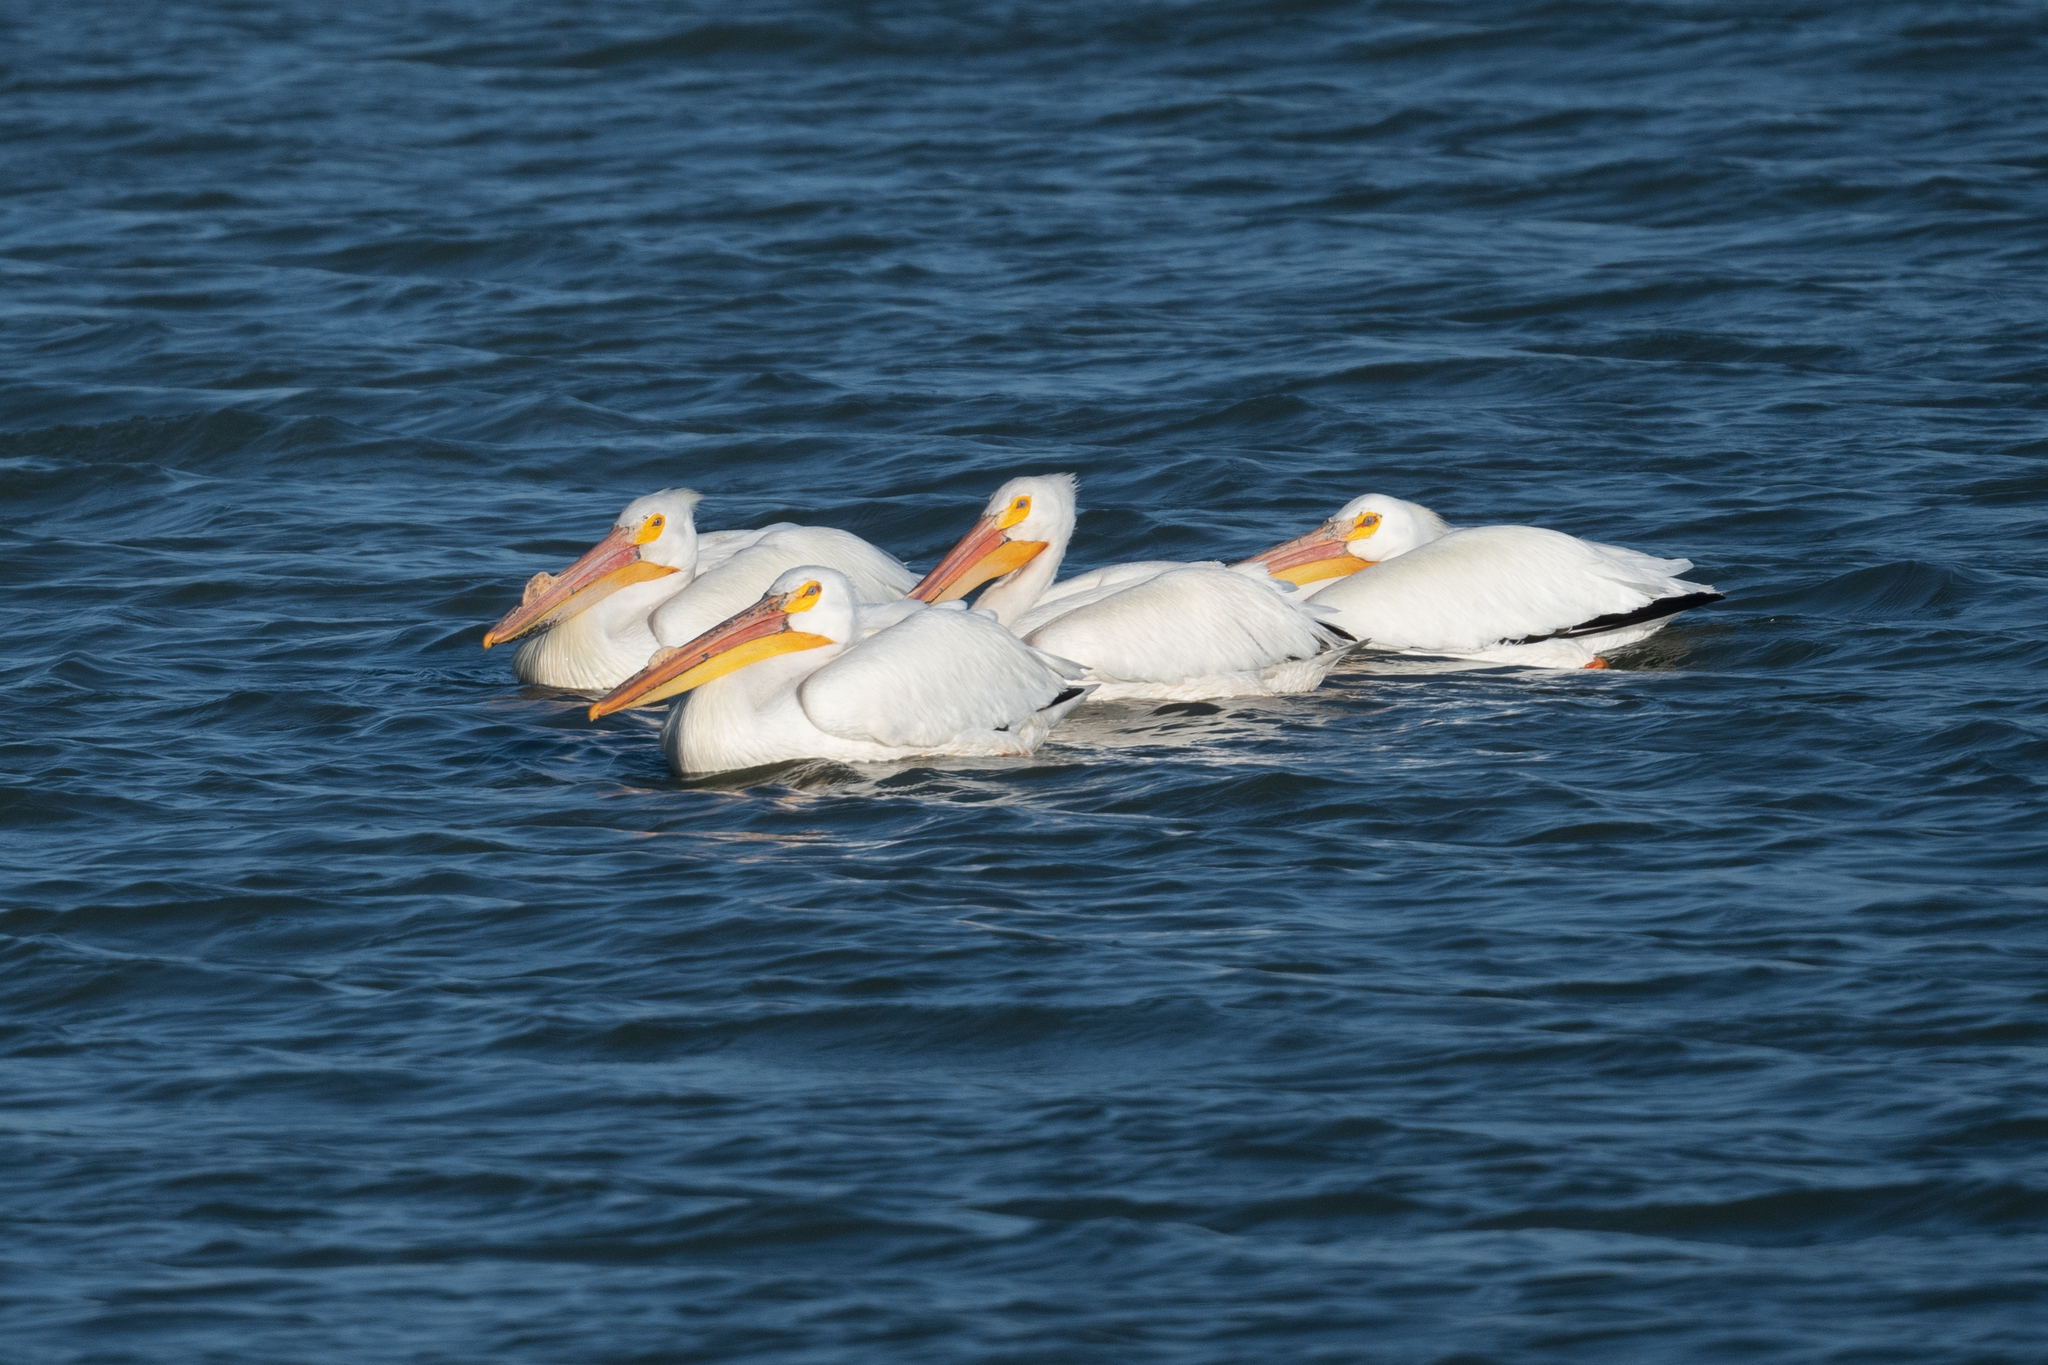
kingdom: Animalia
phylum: Chordata
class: Aves
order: Pelecaniformes
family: Pelecanidae
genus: Pelecanus
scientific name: Pelecanus erythrorhynchos
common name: American white pelican
